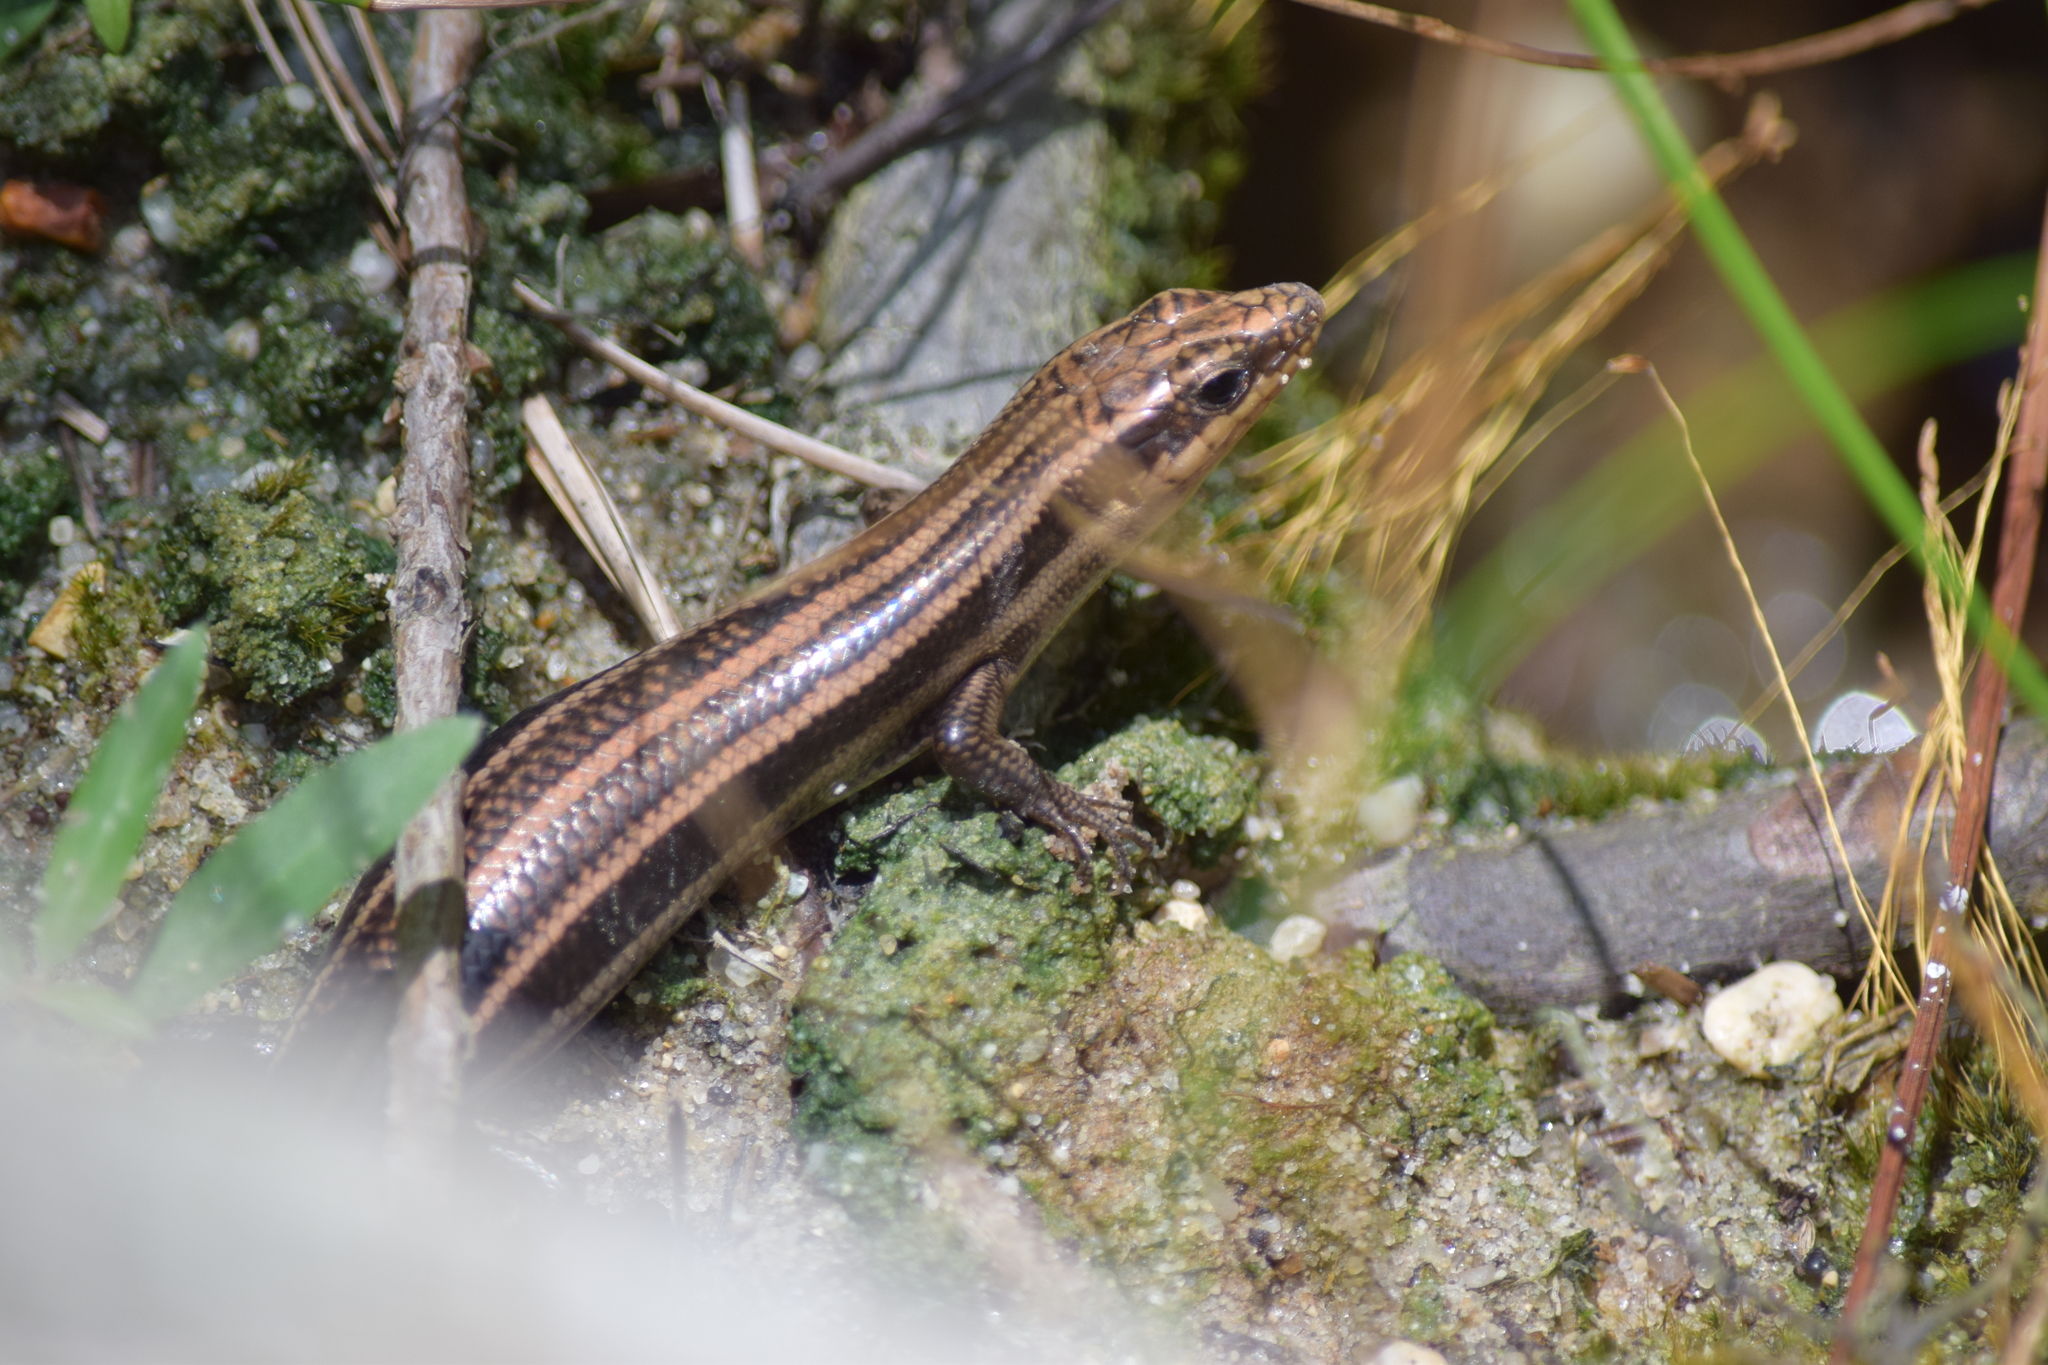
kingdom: Animalia
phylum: Chordata
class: Squamata
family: Scincidae
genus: Plestiodon
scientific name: Plestiodon fasciatus
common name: Five-lined skink
